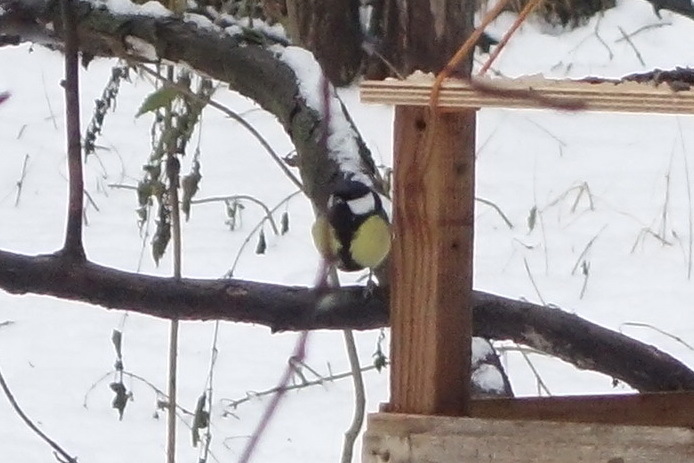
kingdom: Animalia
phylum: Chordata
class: Aves
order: Passeriformes
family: Paridae
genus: Parus
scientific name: Parus major
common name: Great tit
